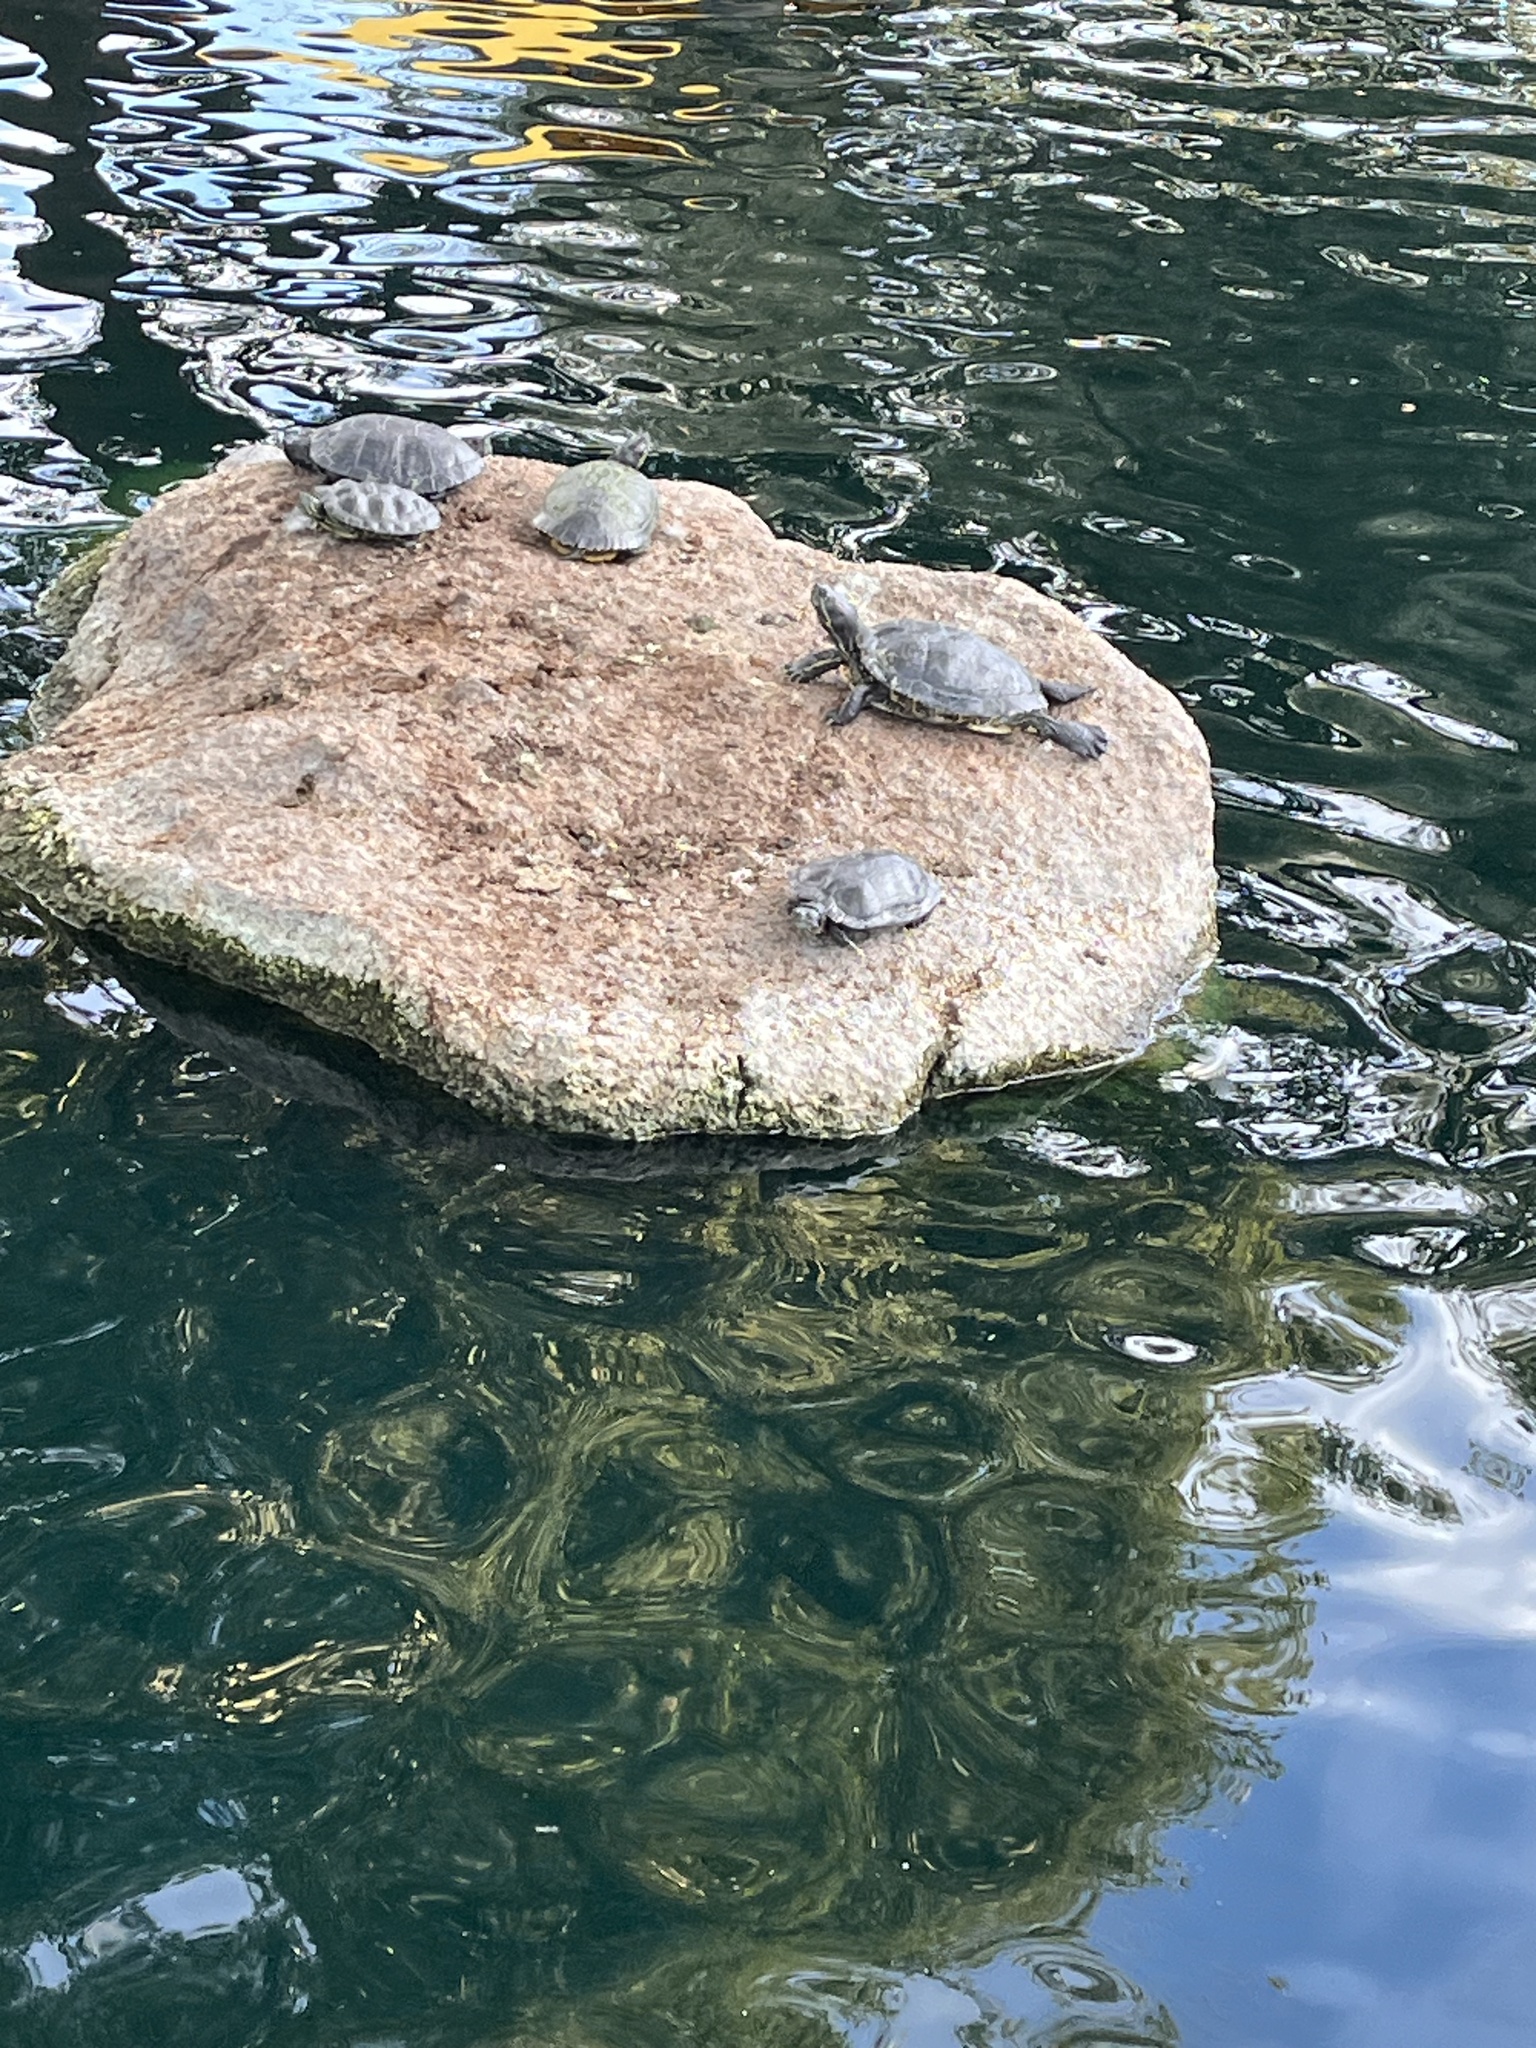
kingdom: Animalia
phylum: Chordata
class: Testudines
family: Emydidae
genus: Trachemys
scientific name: Trachemys scripta
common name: Slider
